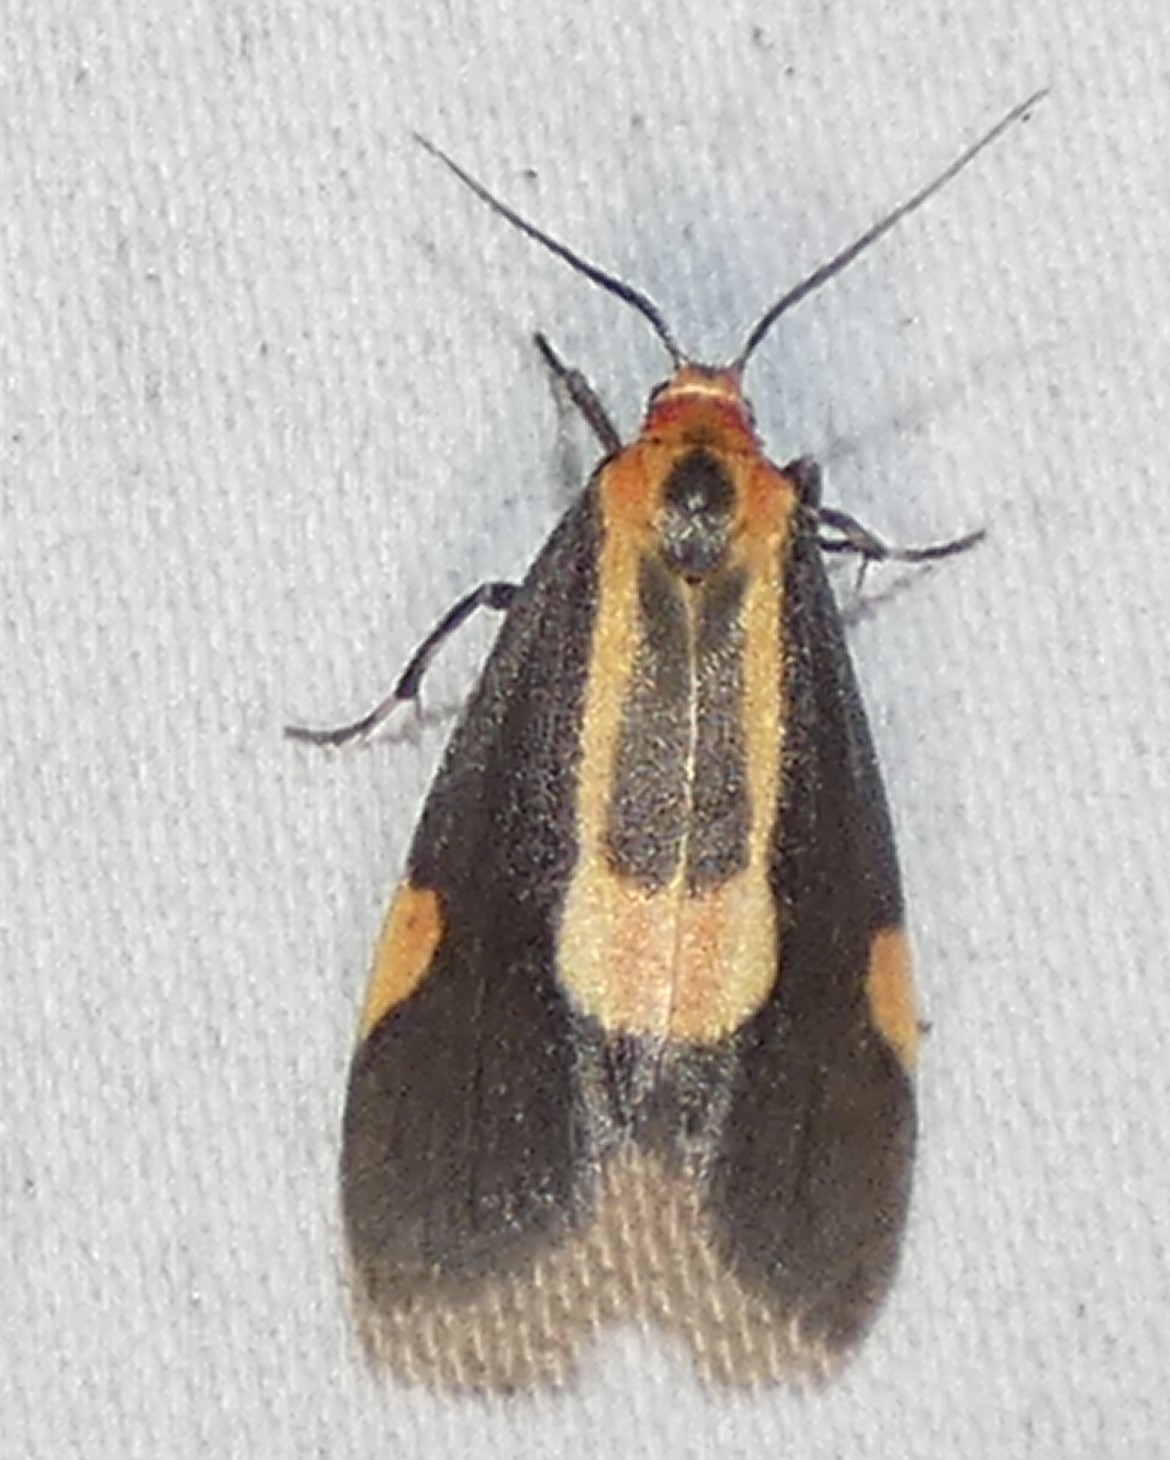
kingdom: Animalia
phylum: Arthropoda
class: Insecta
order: Lepidoptera
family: Erebidae
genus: Cisthene
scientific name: Cisthene packardii
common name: Packard's lichen moth
